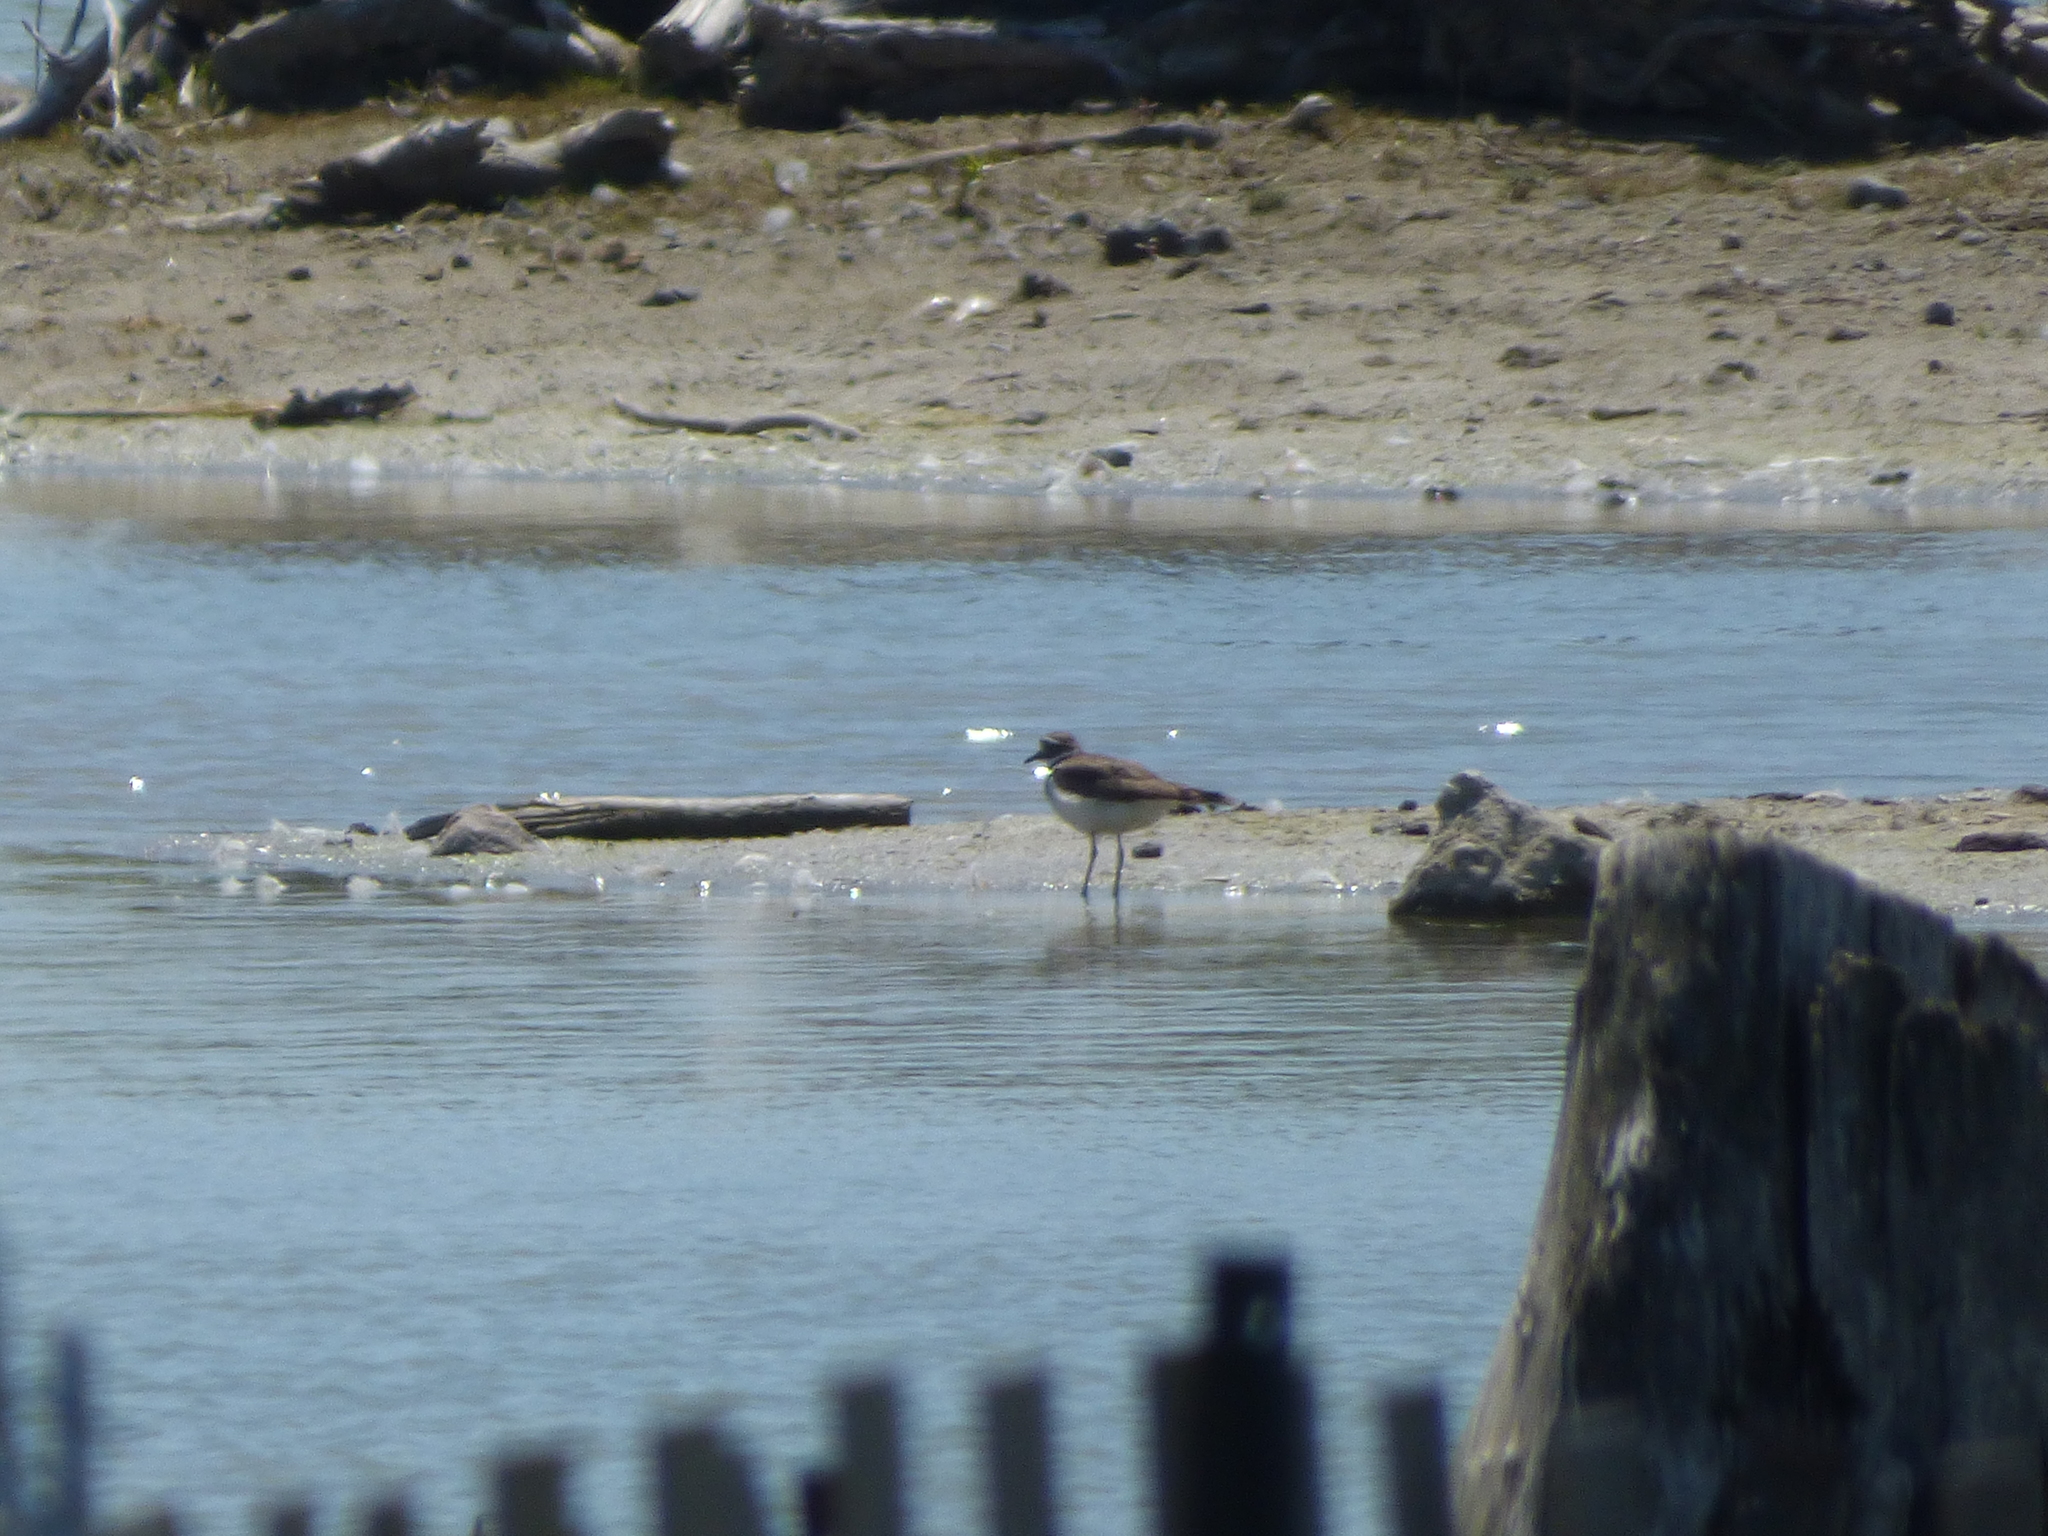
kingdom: Animalia
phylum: Chordata
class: Aves
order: Charadriiformes
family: Charadriidae
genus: Charadrius
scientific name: Charadrius vociferus
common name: Killdeer
